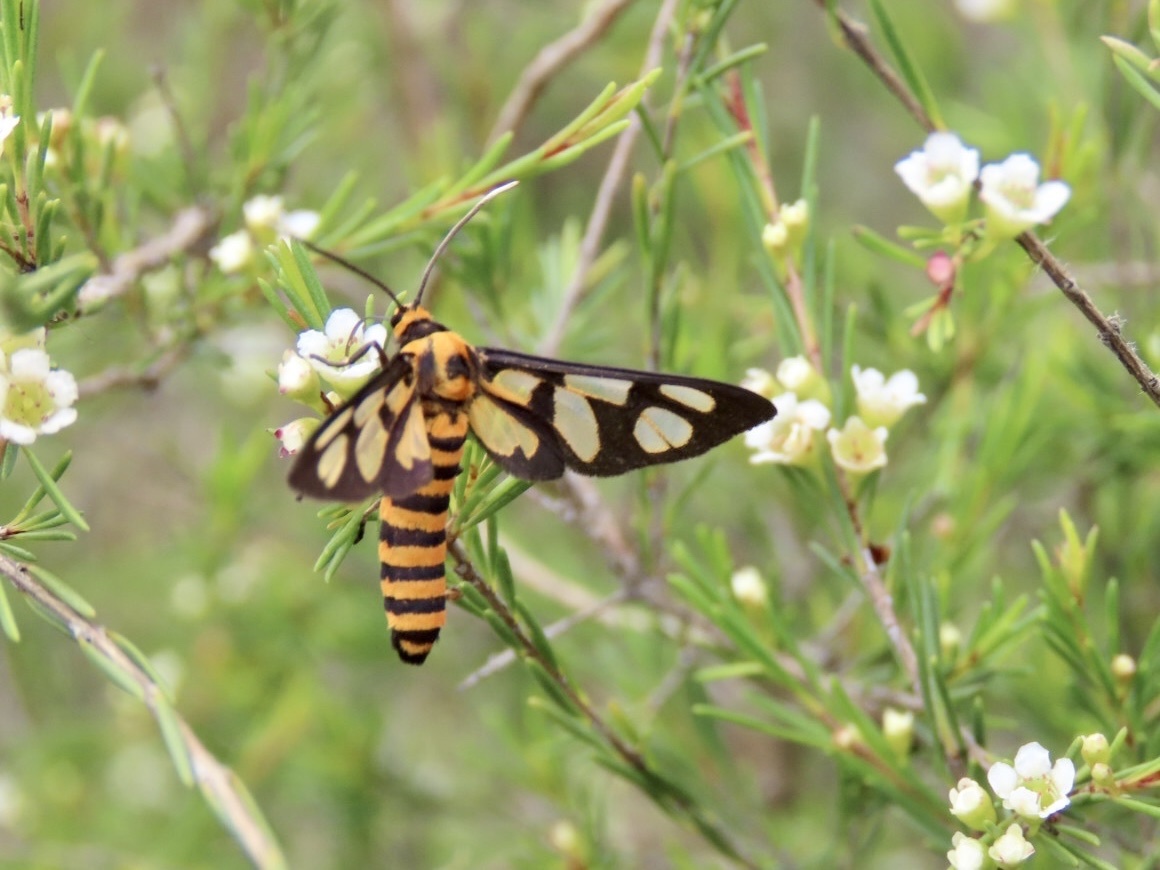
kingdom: Animalia
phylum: Arthropoda
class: Insecta
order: Lepidoptera
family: Erebidae
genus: Amata
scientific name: Amata lucerna
